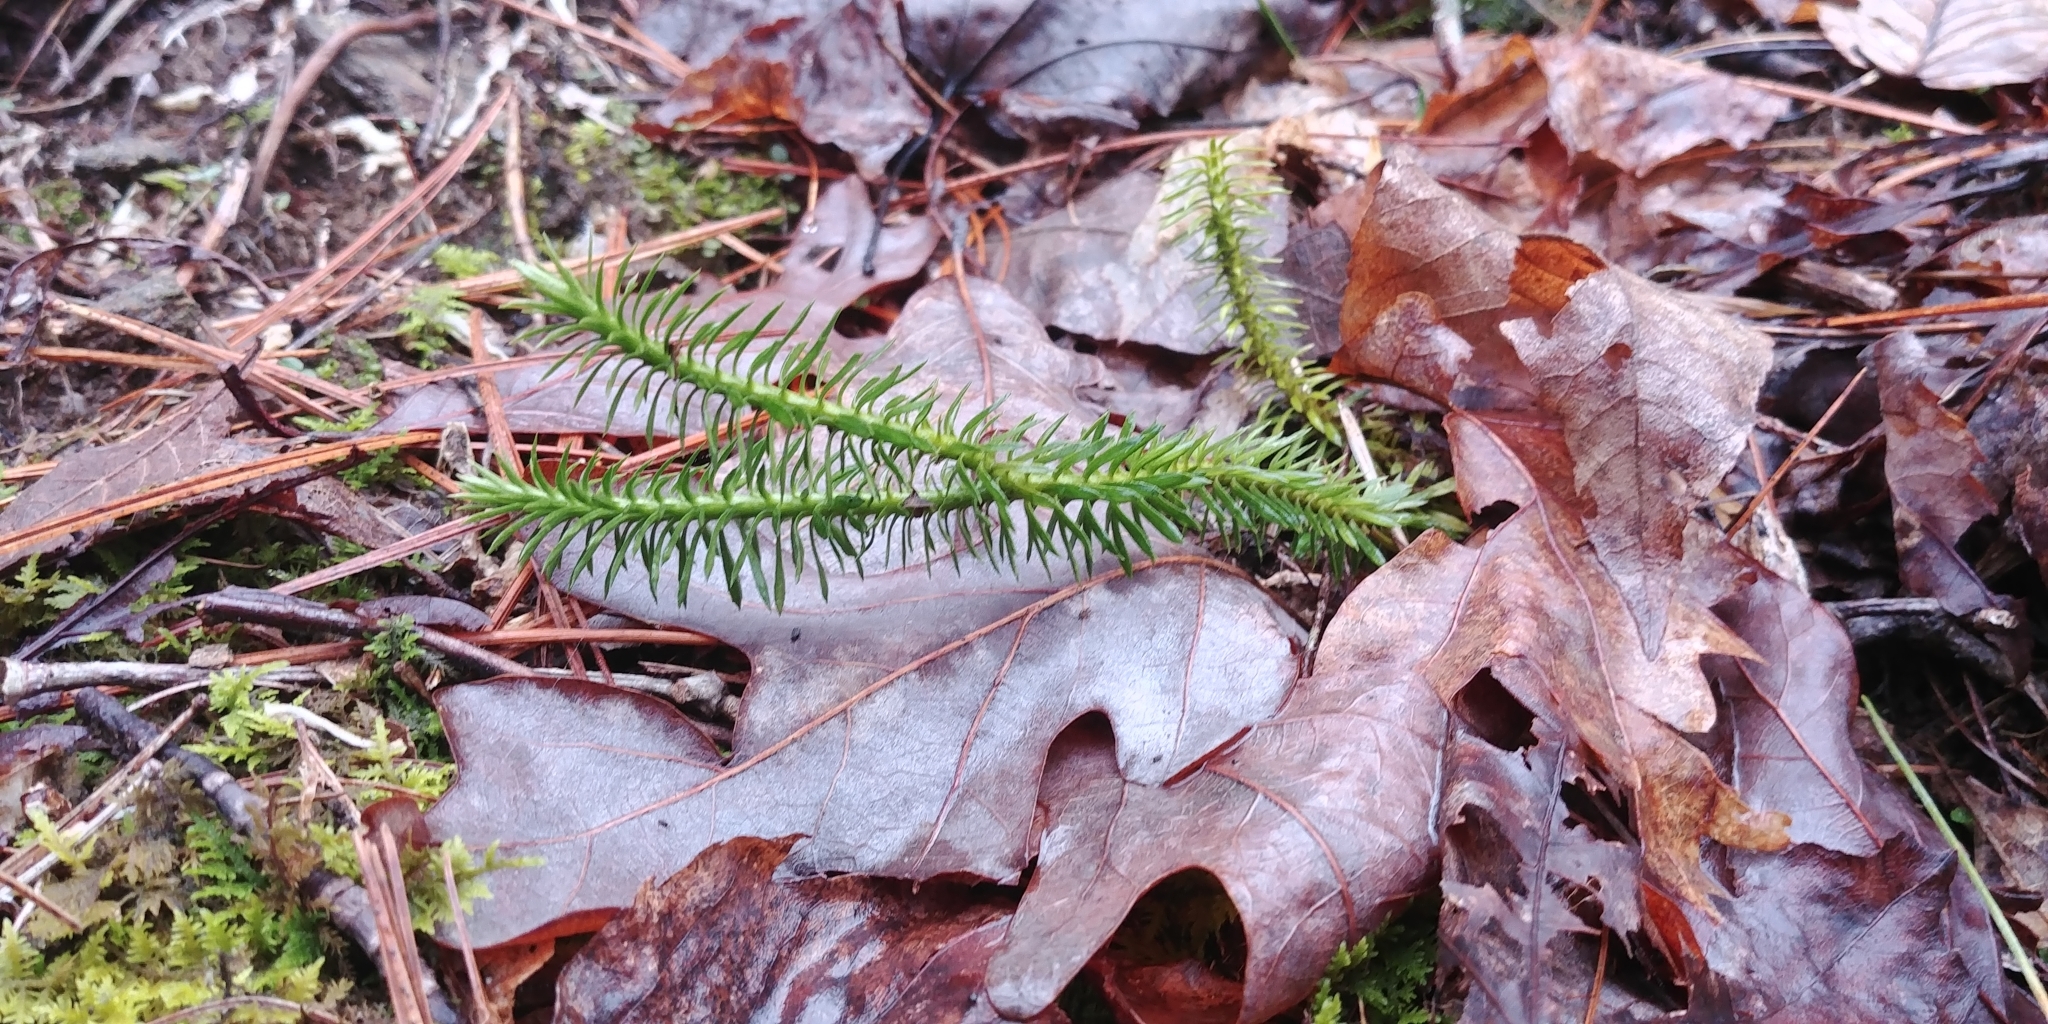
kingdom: Plantae
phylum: Tracheophyta
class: Lycopodiopsida
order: Lycopodiales
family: Lycopodiaceae
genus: Huperzia
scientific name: Huperzia lucidula
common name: Shining clubmoss
